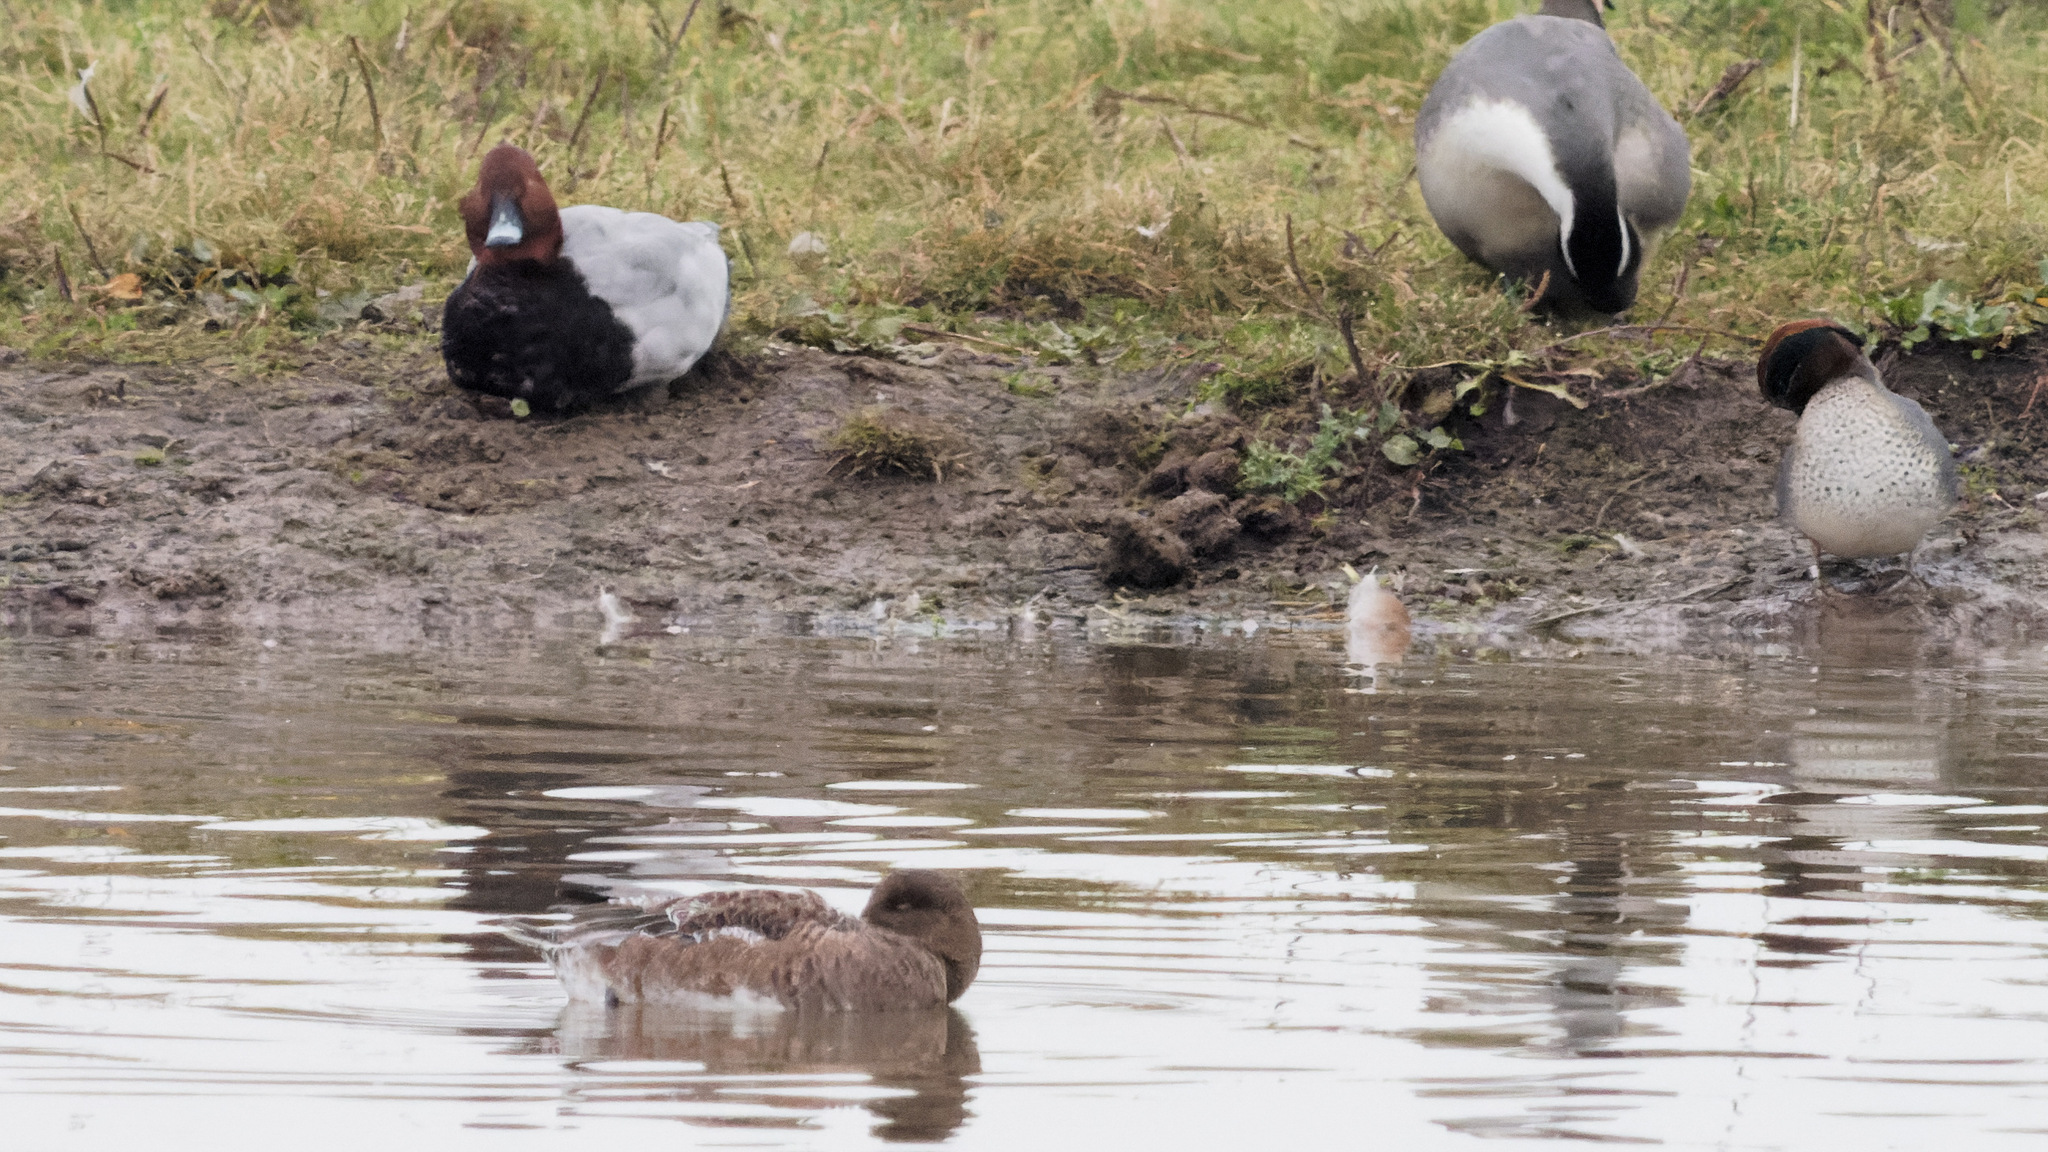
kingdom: Animalia
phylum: Chordata
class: Aves
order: Anseriformes
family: Anatidae
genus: Aythya
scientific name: Aythya ferina
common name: Common pochard
